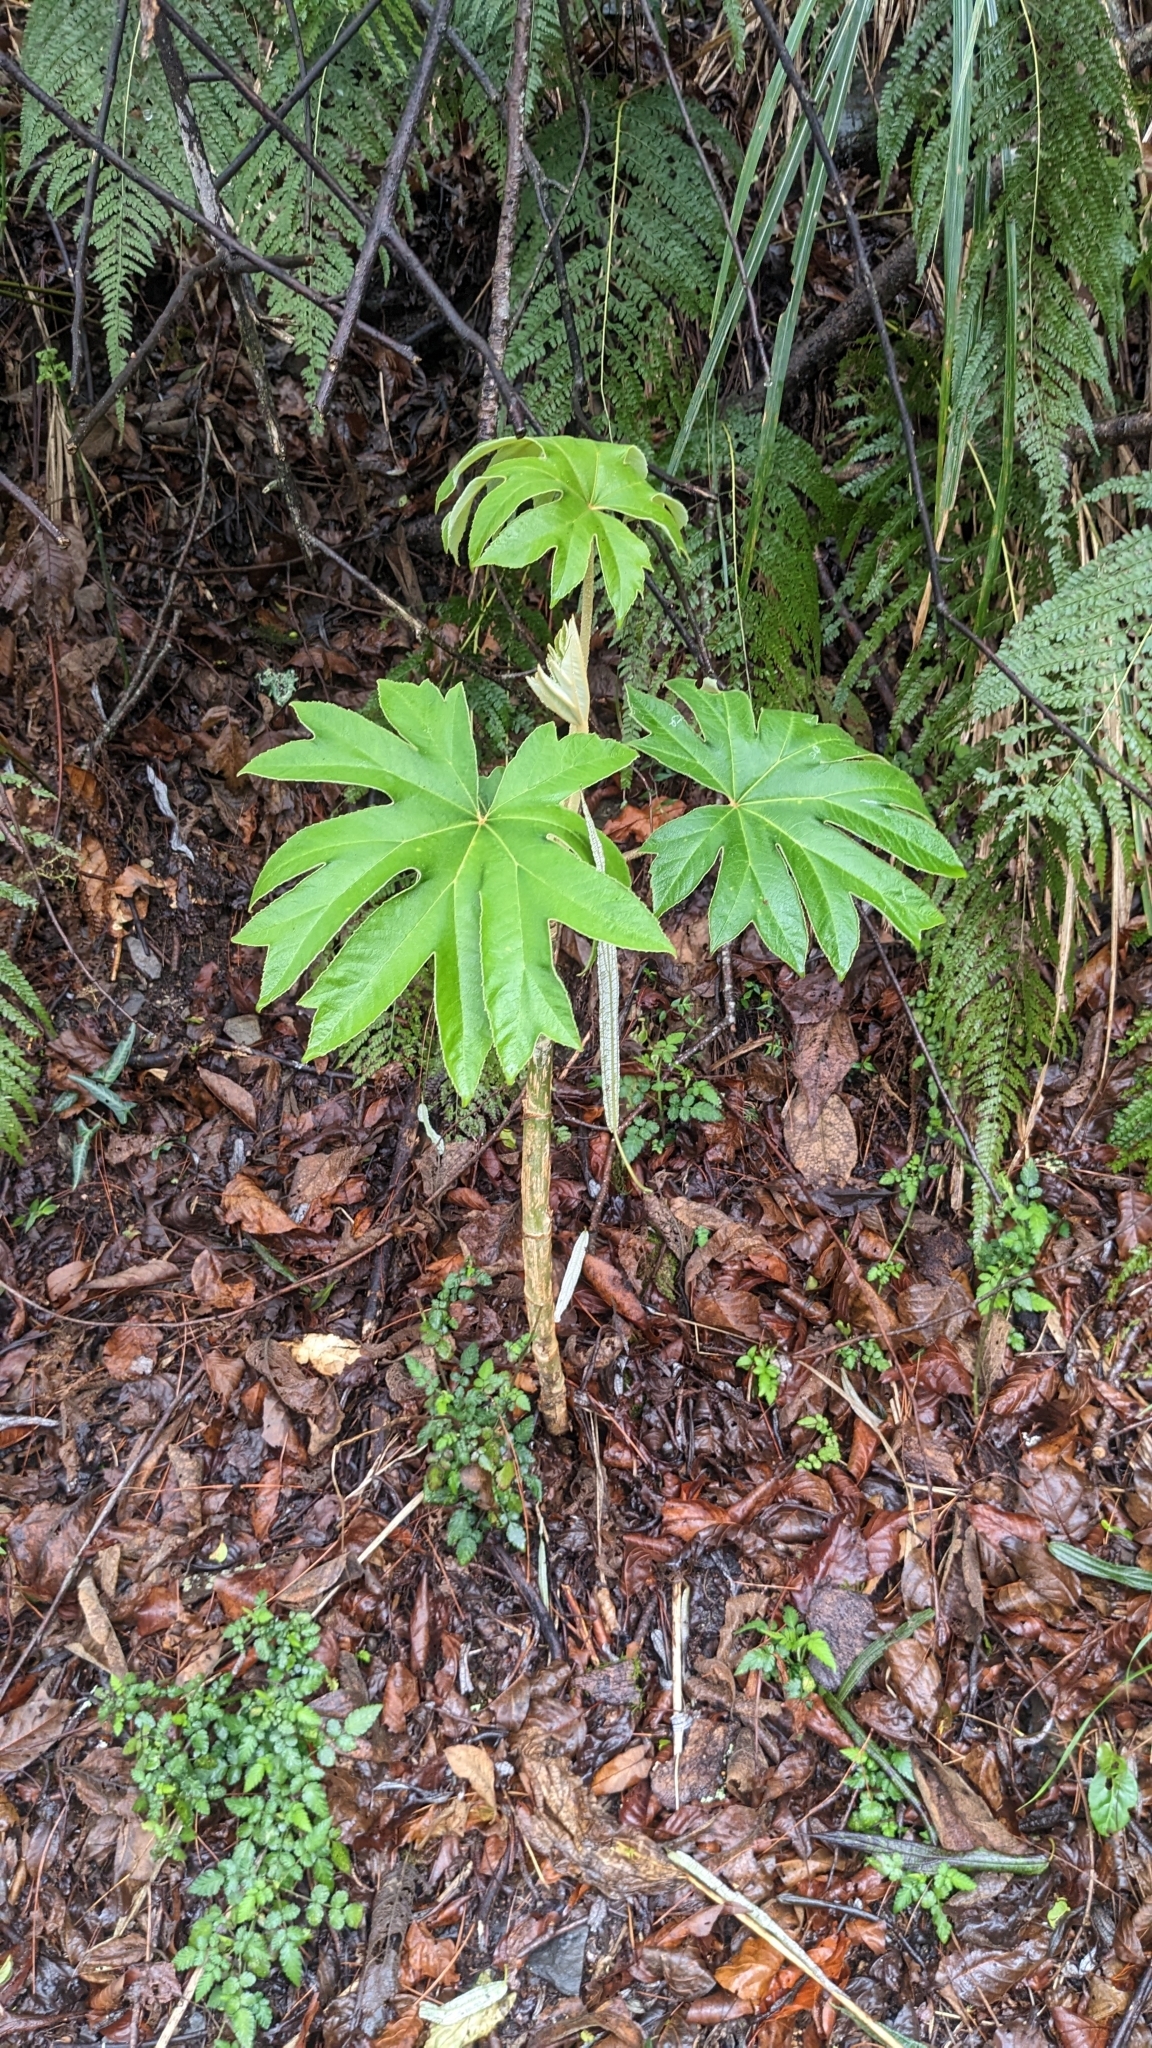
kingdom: Plantae
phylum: Tracheophyta
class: Magnoliopsida
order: Apiales
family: Araliaceae
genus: Tetrapanax
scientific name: Tetrapanax papyrifer
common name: Rice-paper plant
